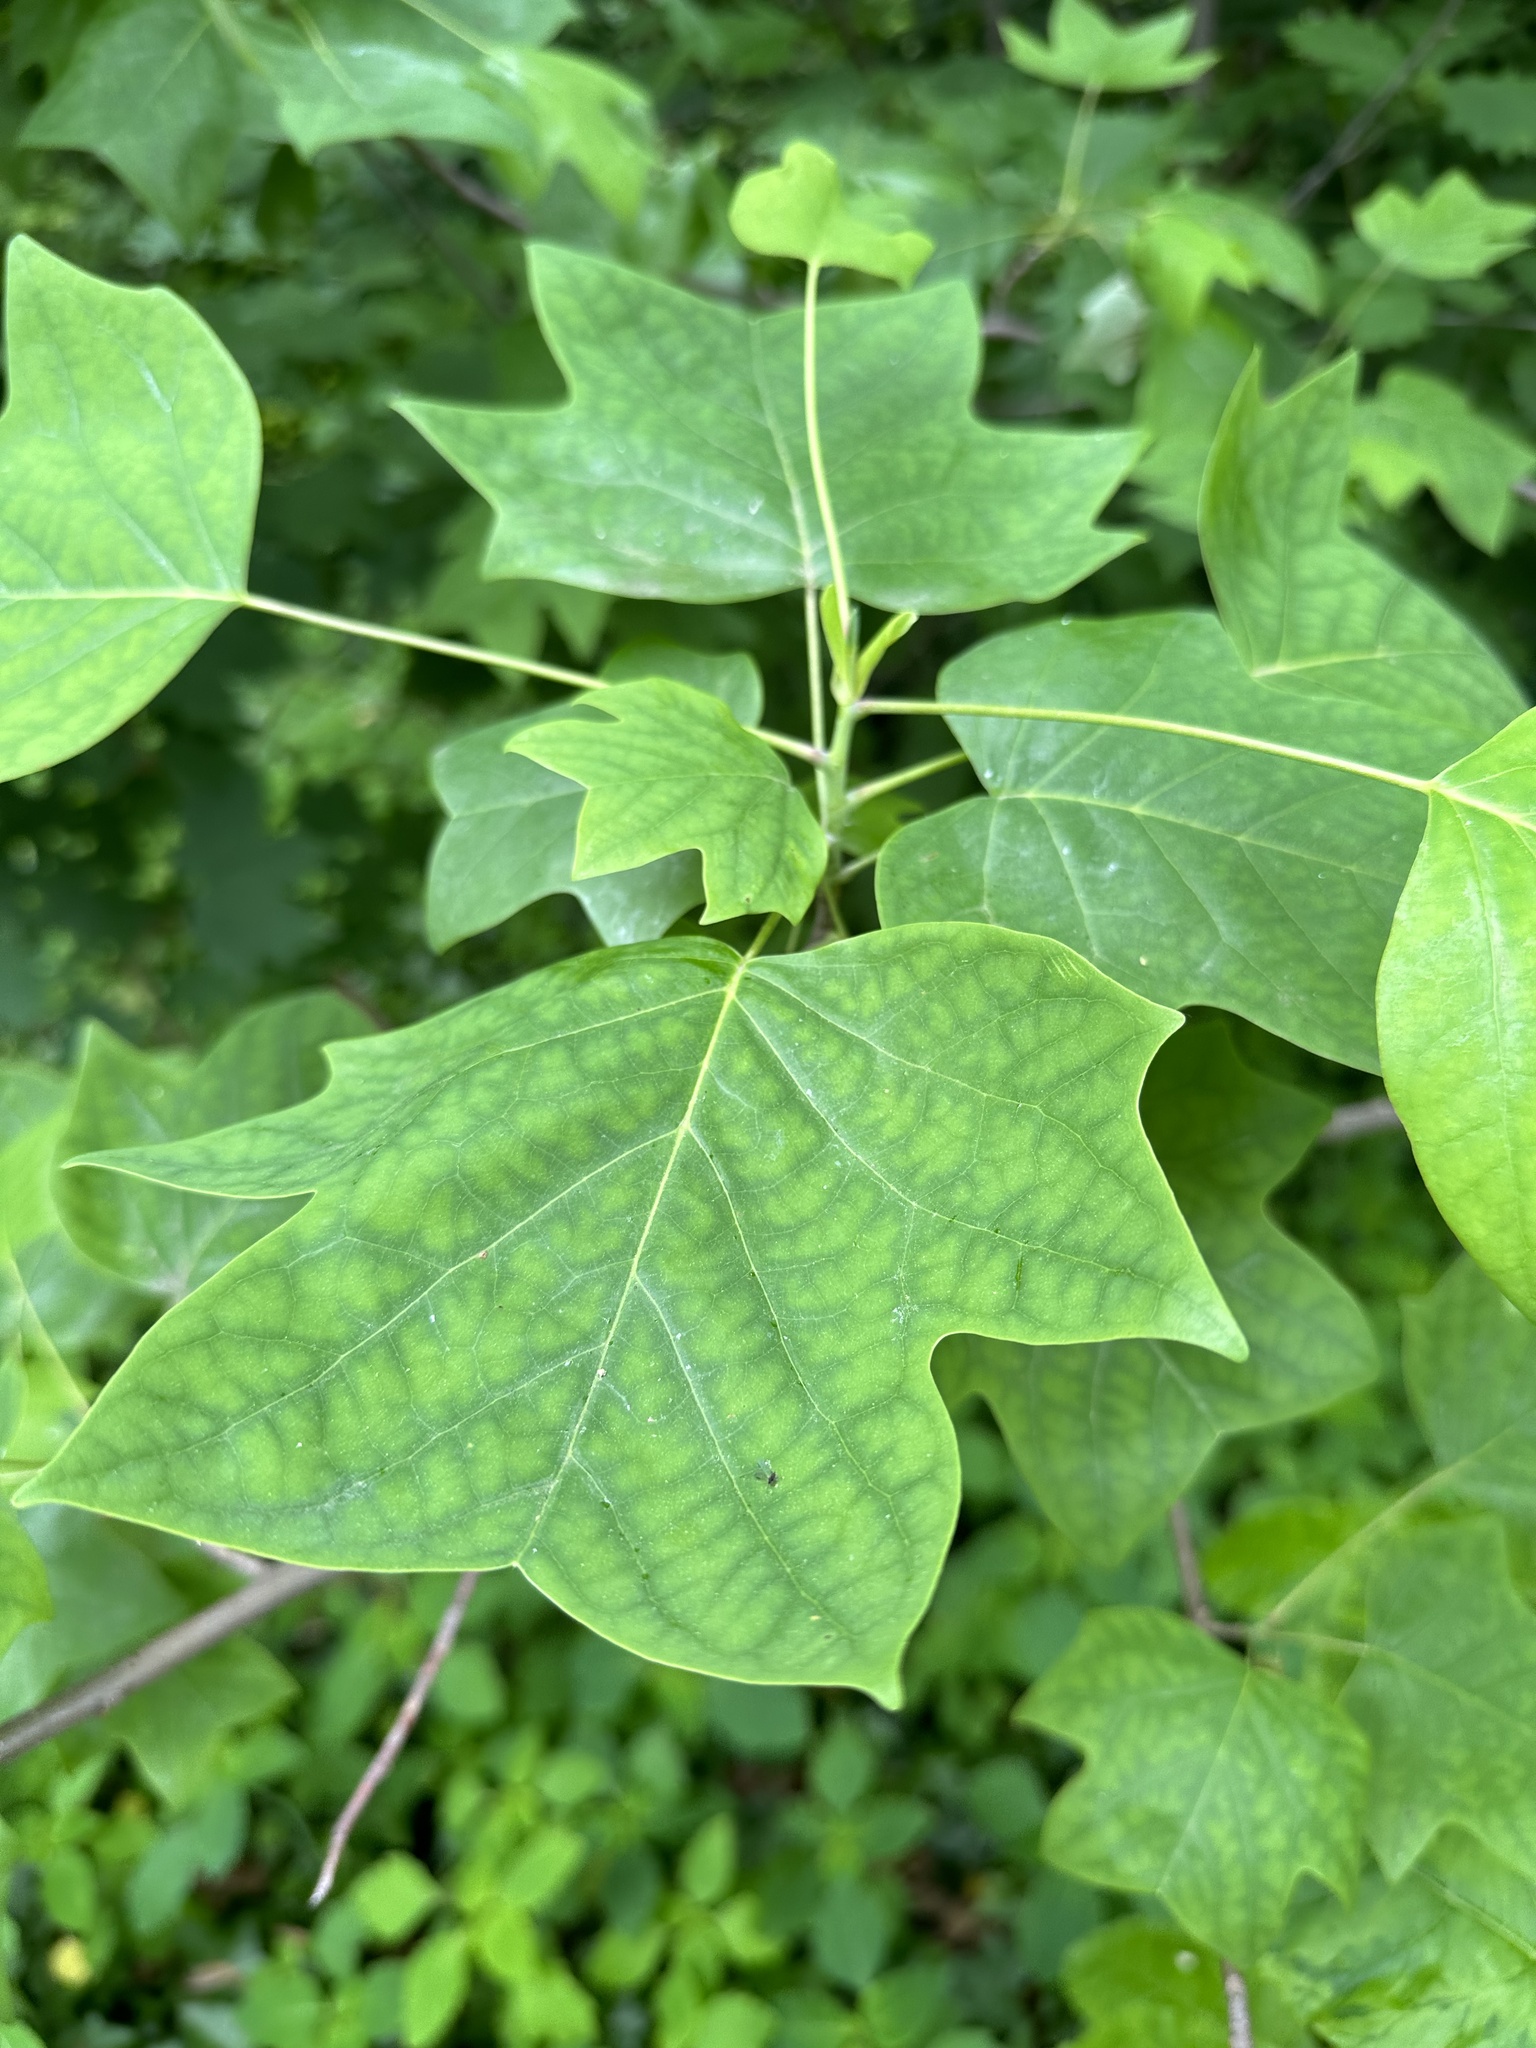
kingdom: Plantae
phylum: Tracheophyta
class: Magnoliopsida
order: Magnoliales
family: Magnoliaceae
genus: Liriodendron
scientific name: Liriodendron tulipifera
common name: Tulip tree
